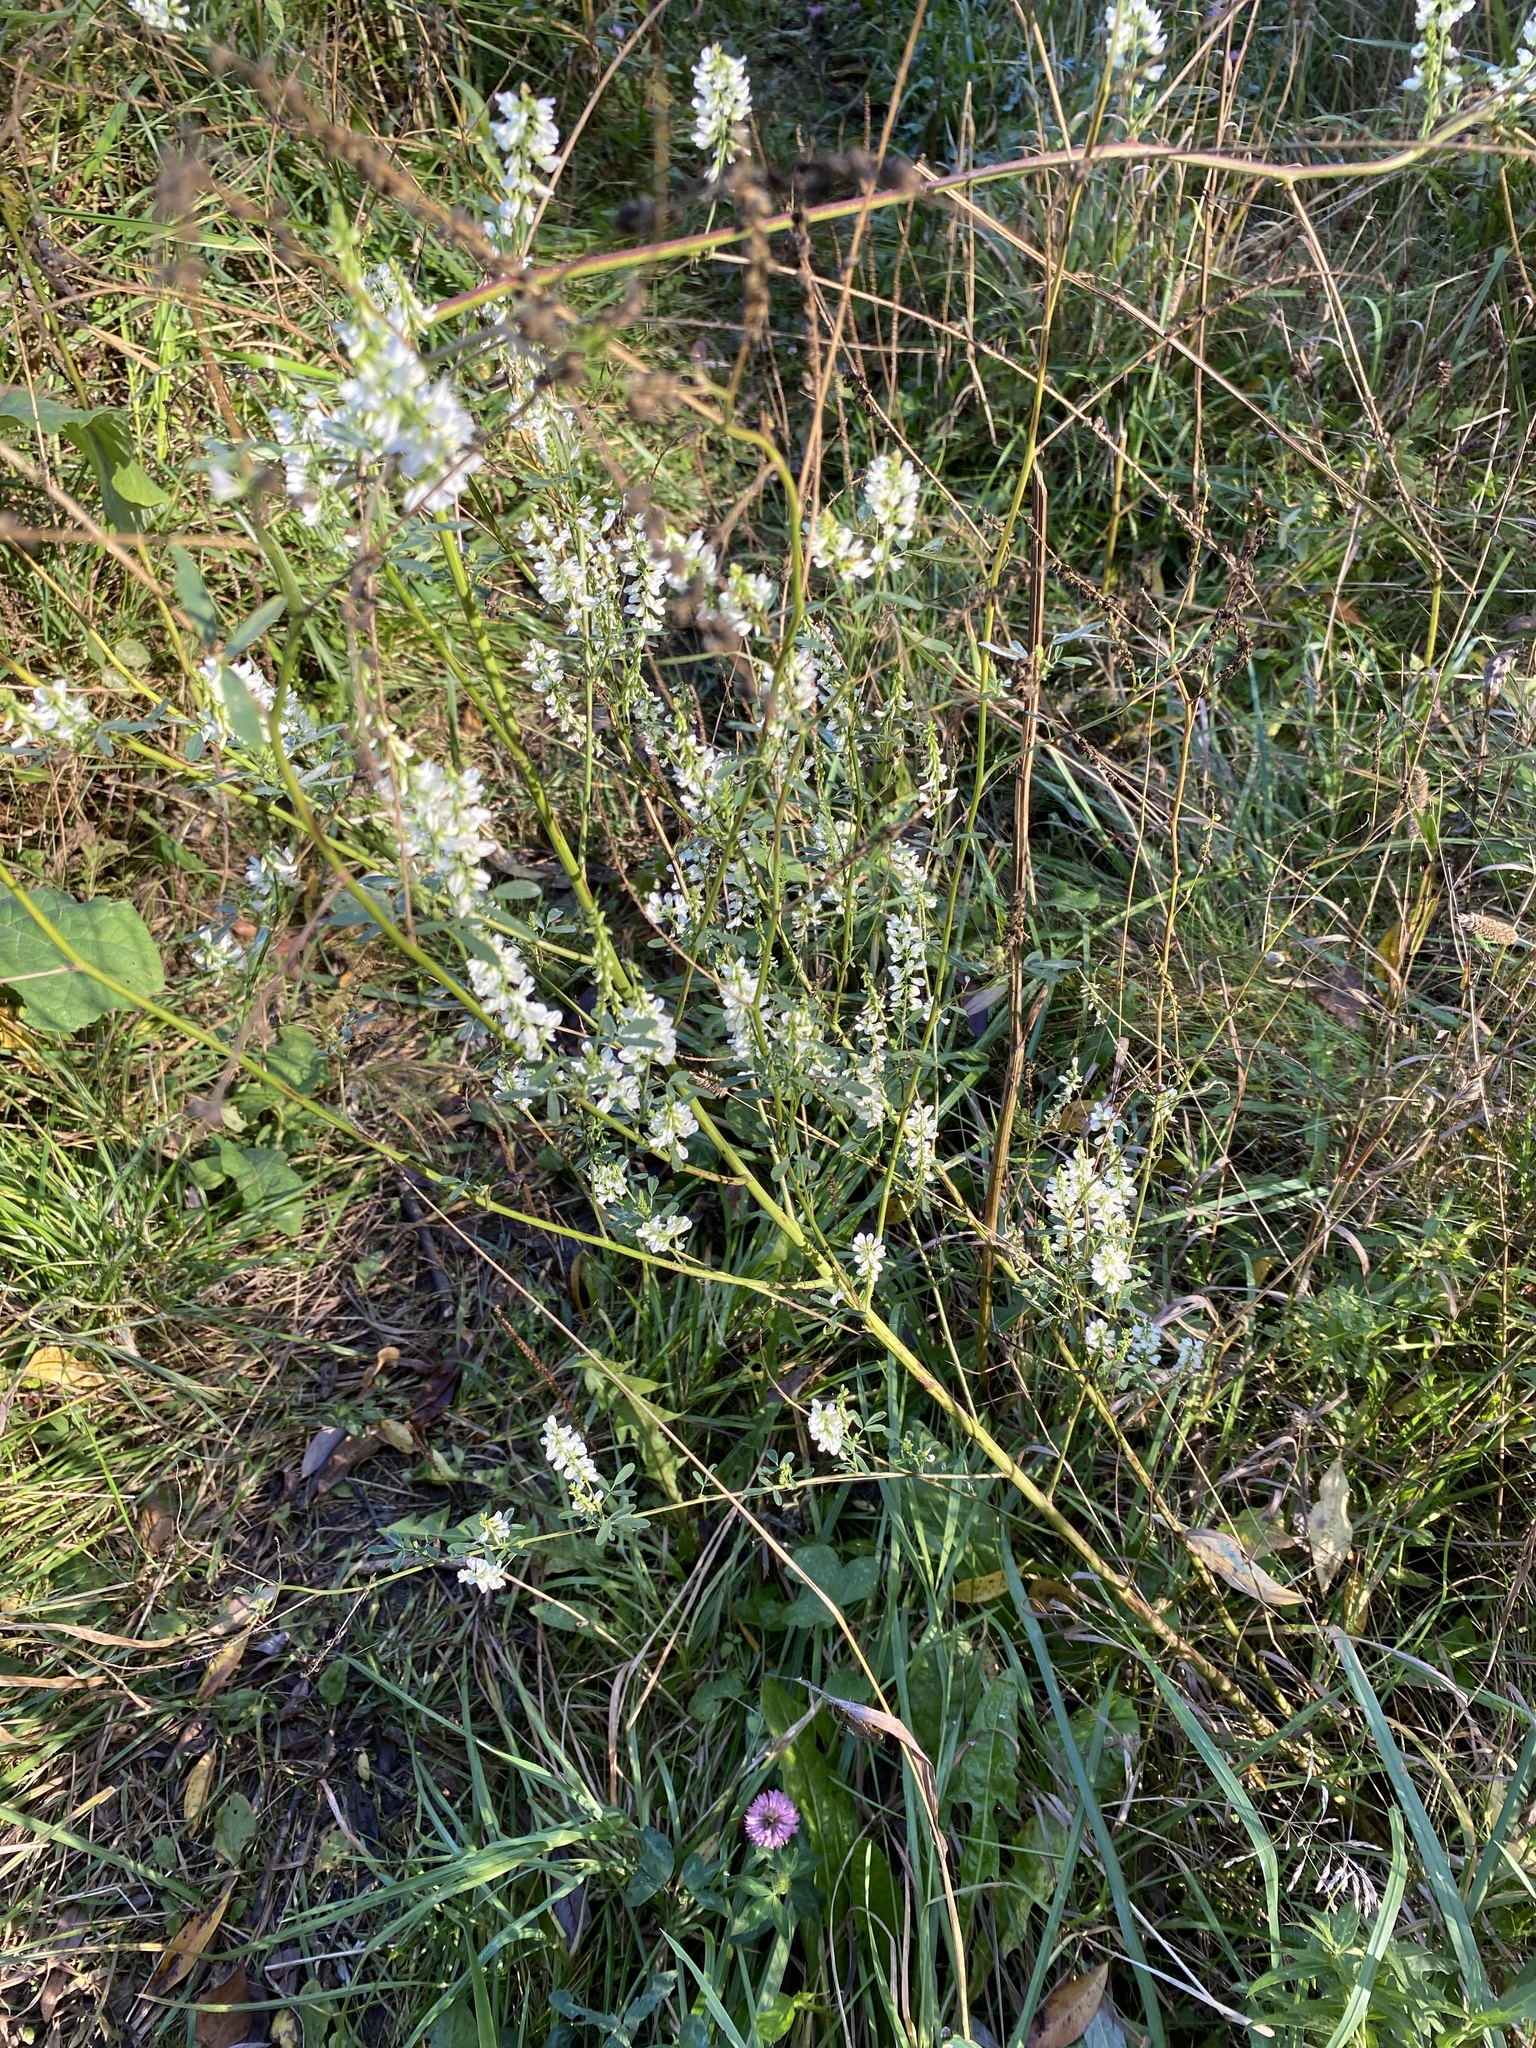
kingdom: Plantae
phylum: Tracheophyta
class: Magnoliopsida
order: Fabales
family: Fabaceae
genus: Melilotus
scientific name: Melilotus albus
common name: White melilot
